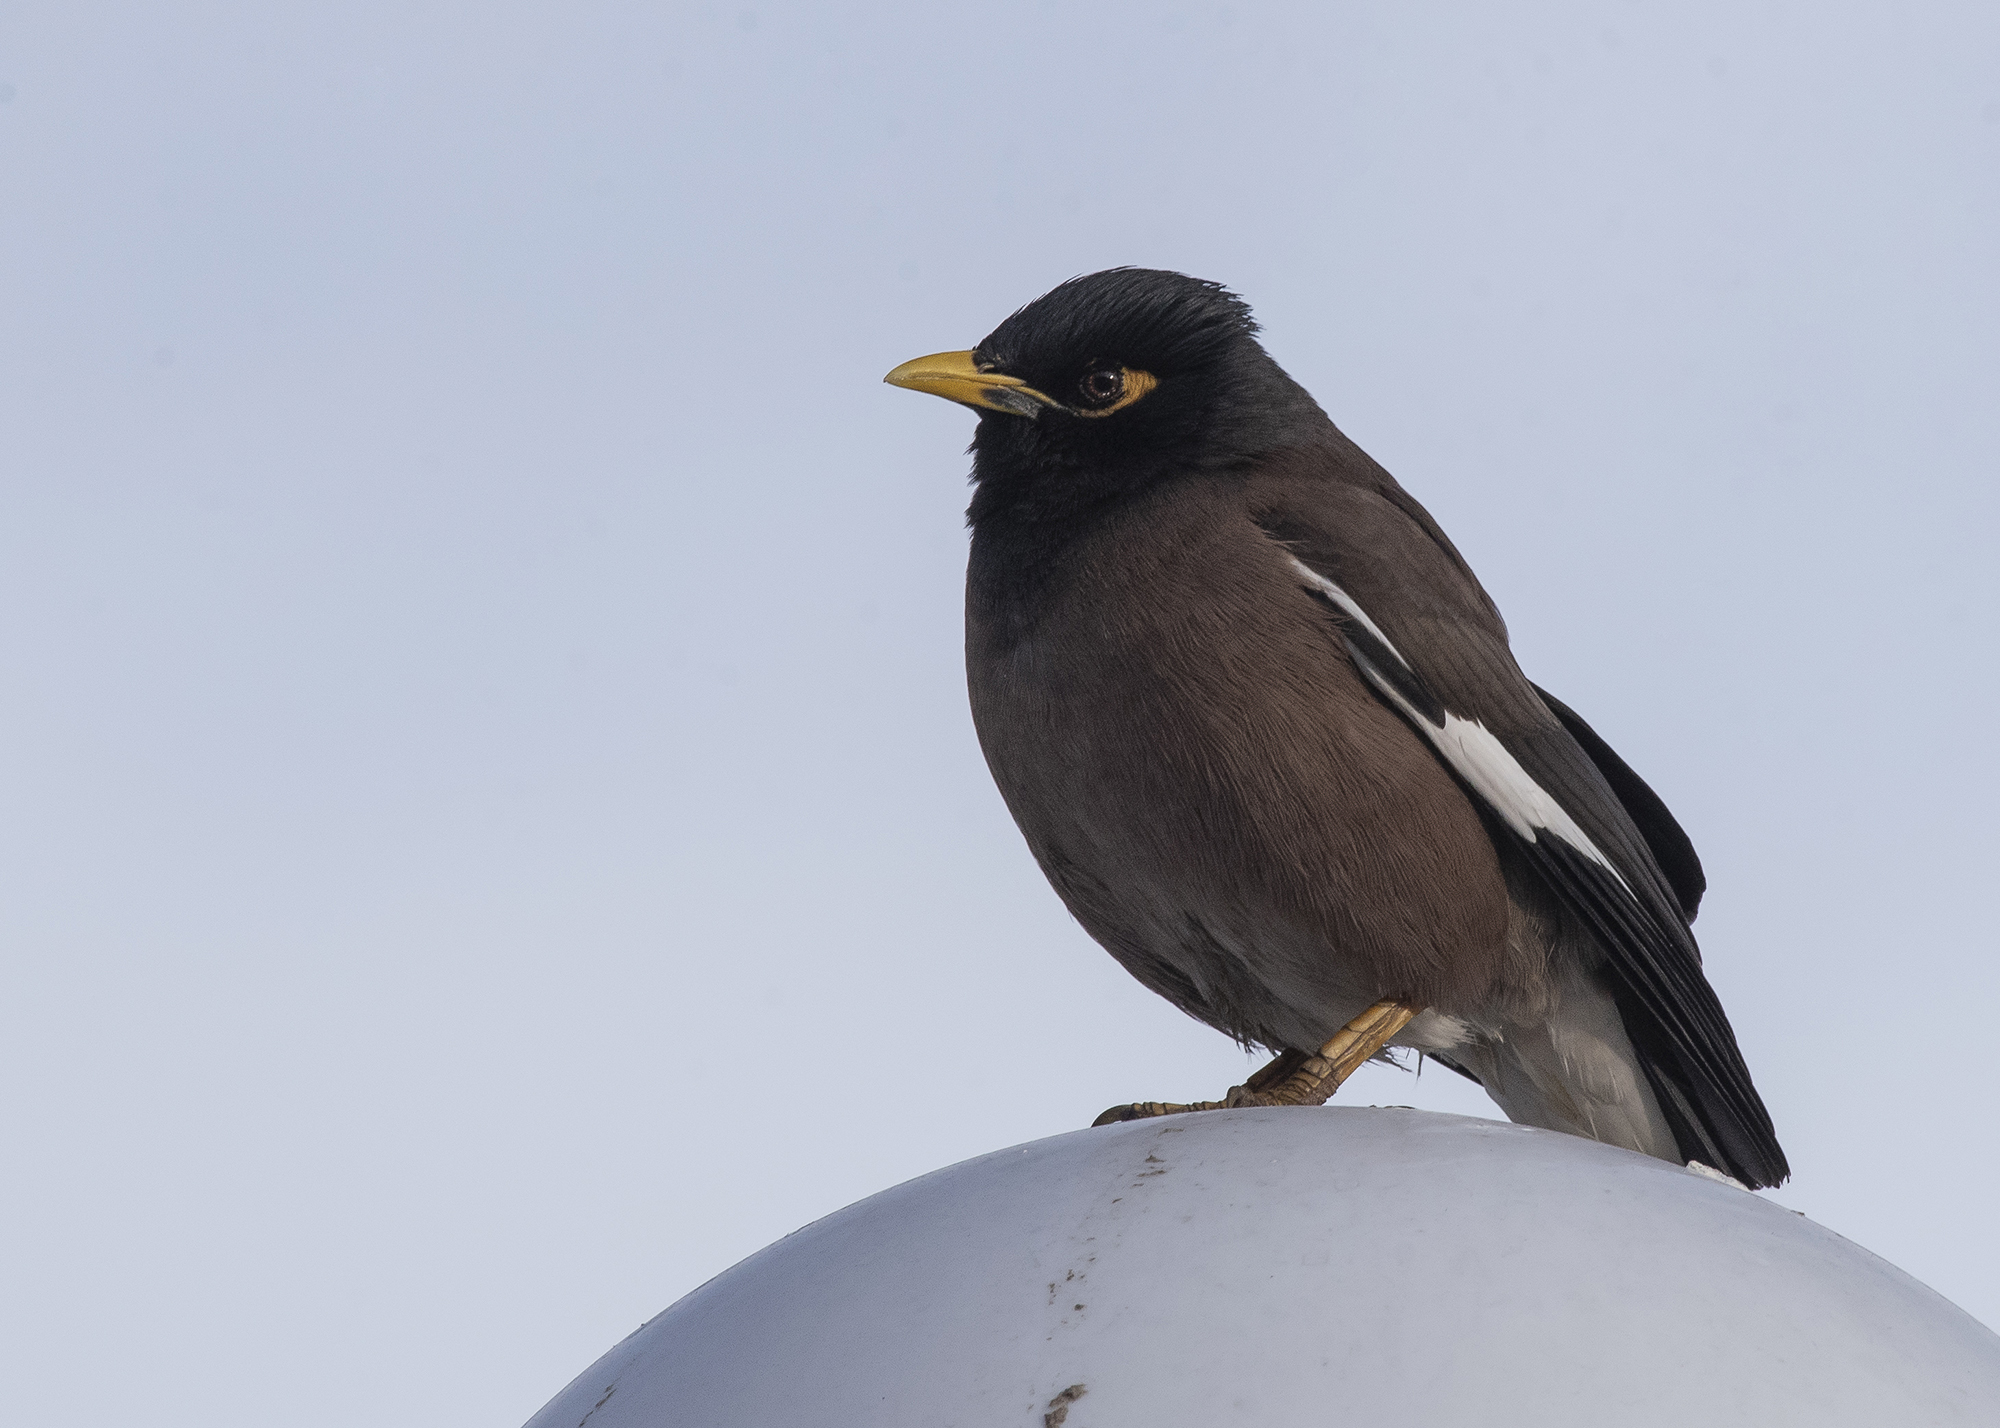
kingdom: Animalia
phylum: Chordata
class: Aves
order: Passeriformes
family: Sturnidae
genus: Acridotheres
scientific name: Acridotheres tristis
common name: Common myna
